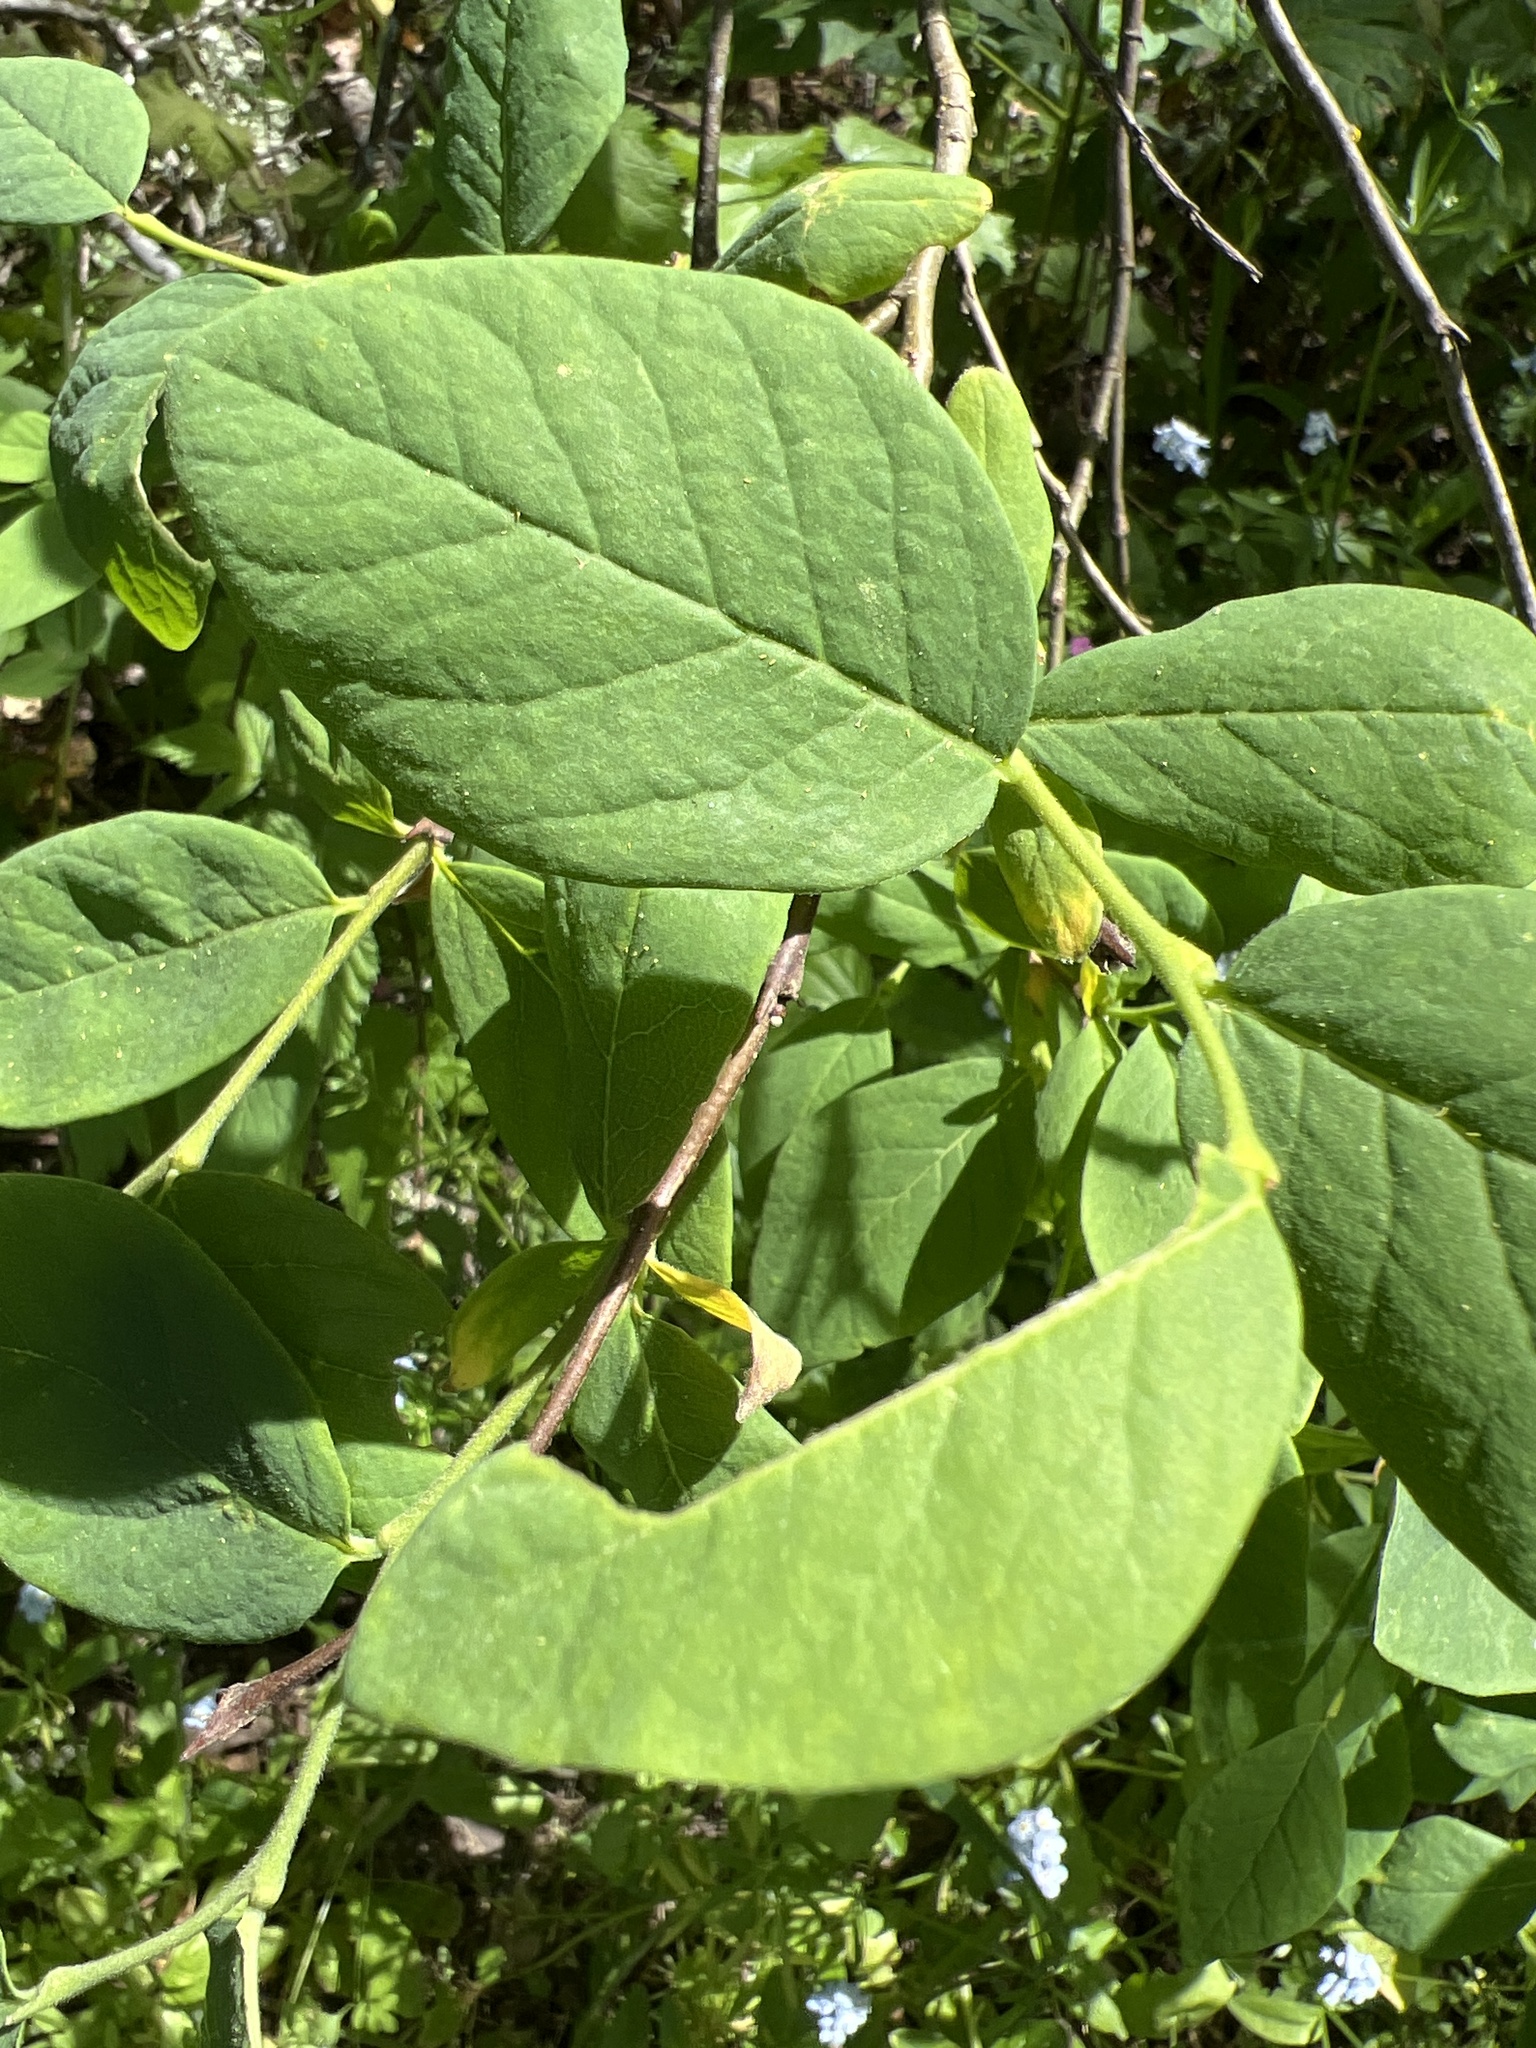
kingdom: Plantae
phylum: Tracheophyta
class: Magnoliopsida
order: Malvales
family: Thymelaeaceae
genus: Dirca
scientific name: Dirca occidentalis
